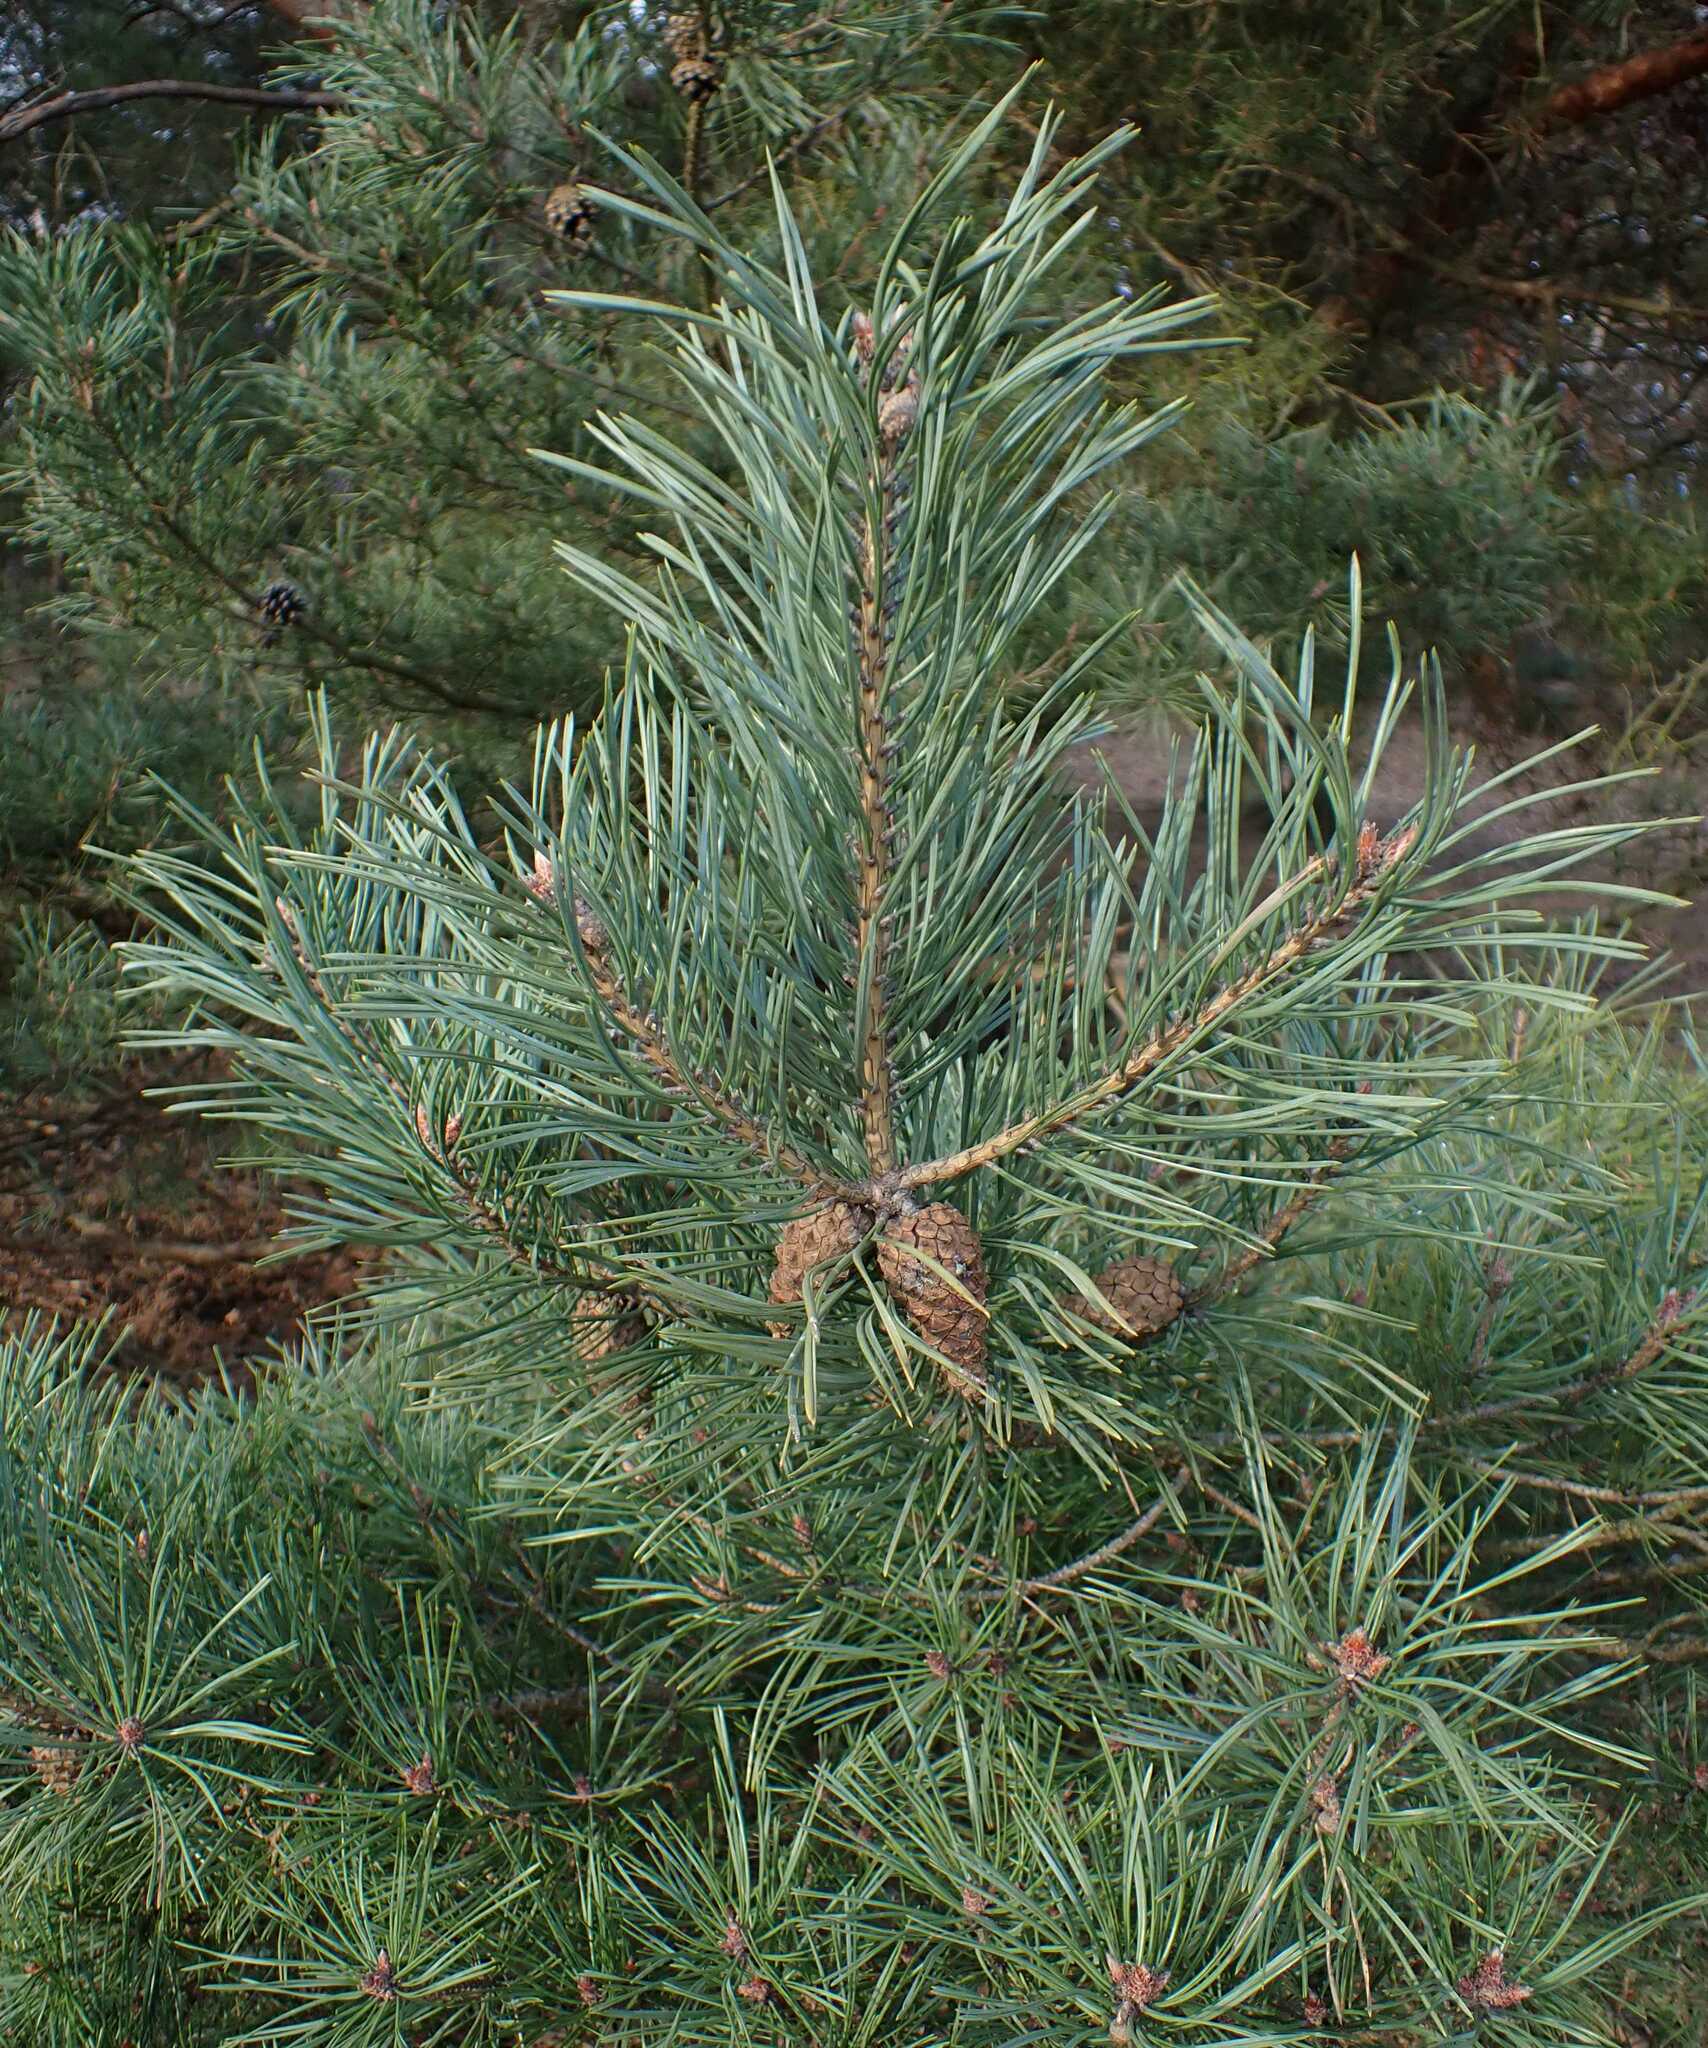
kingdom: Plantae
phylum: Tracheophyta
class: Pinopsida
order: Pinales
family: Pinaceae
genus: Pinus
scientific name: Pinus sylvestris
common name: Scots pine
